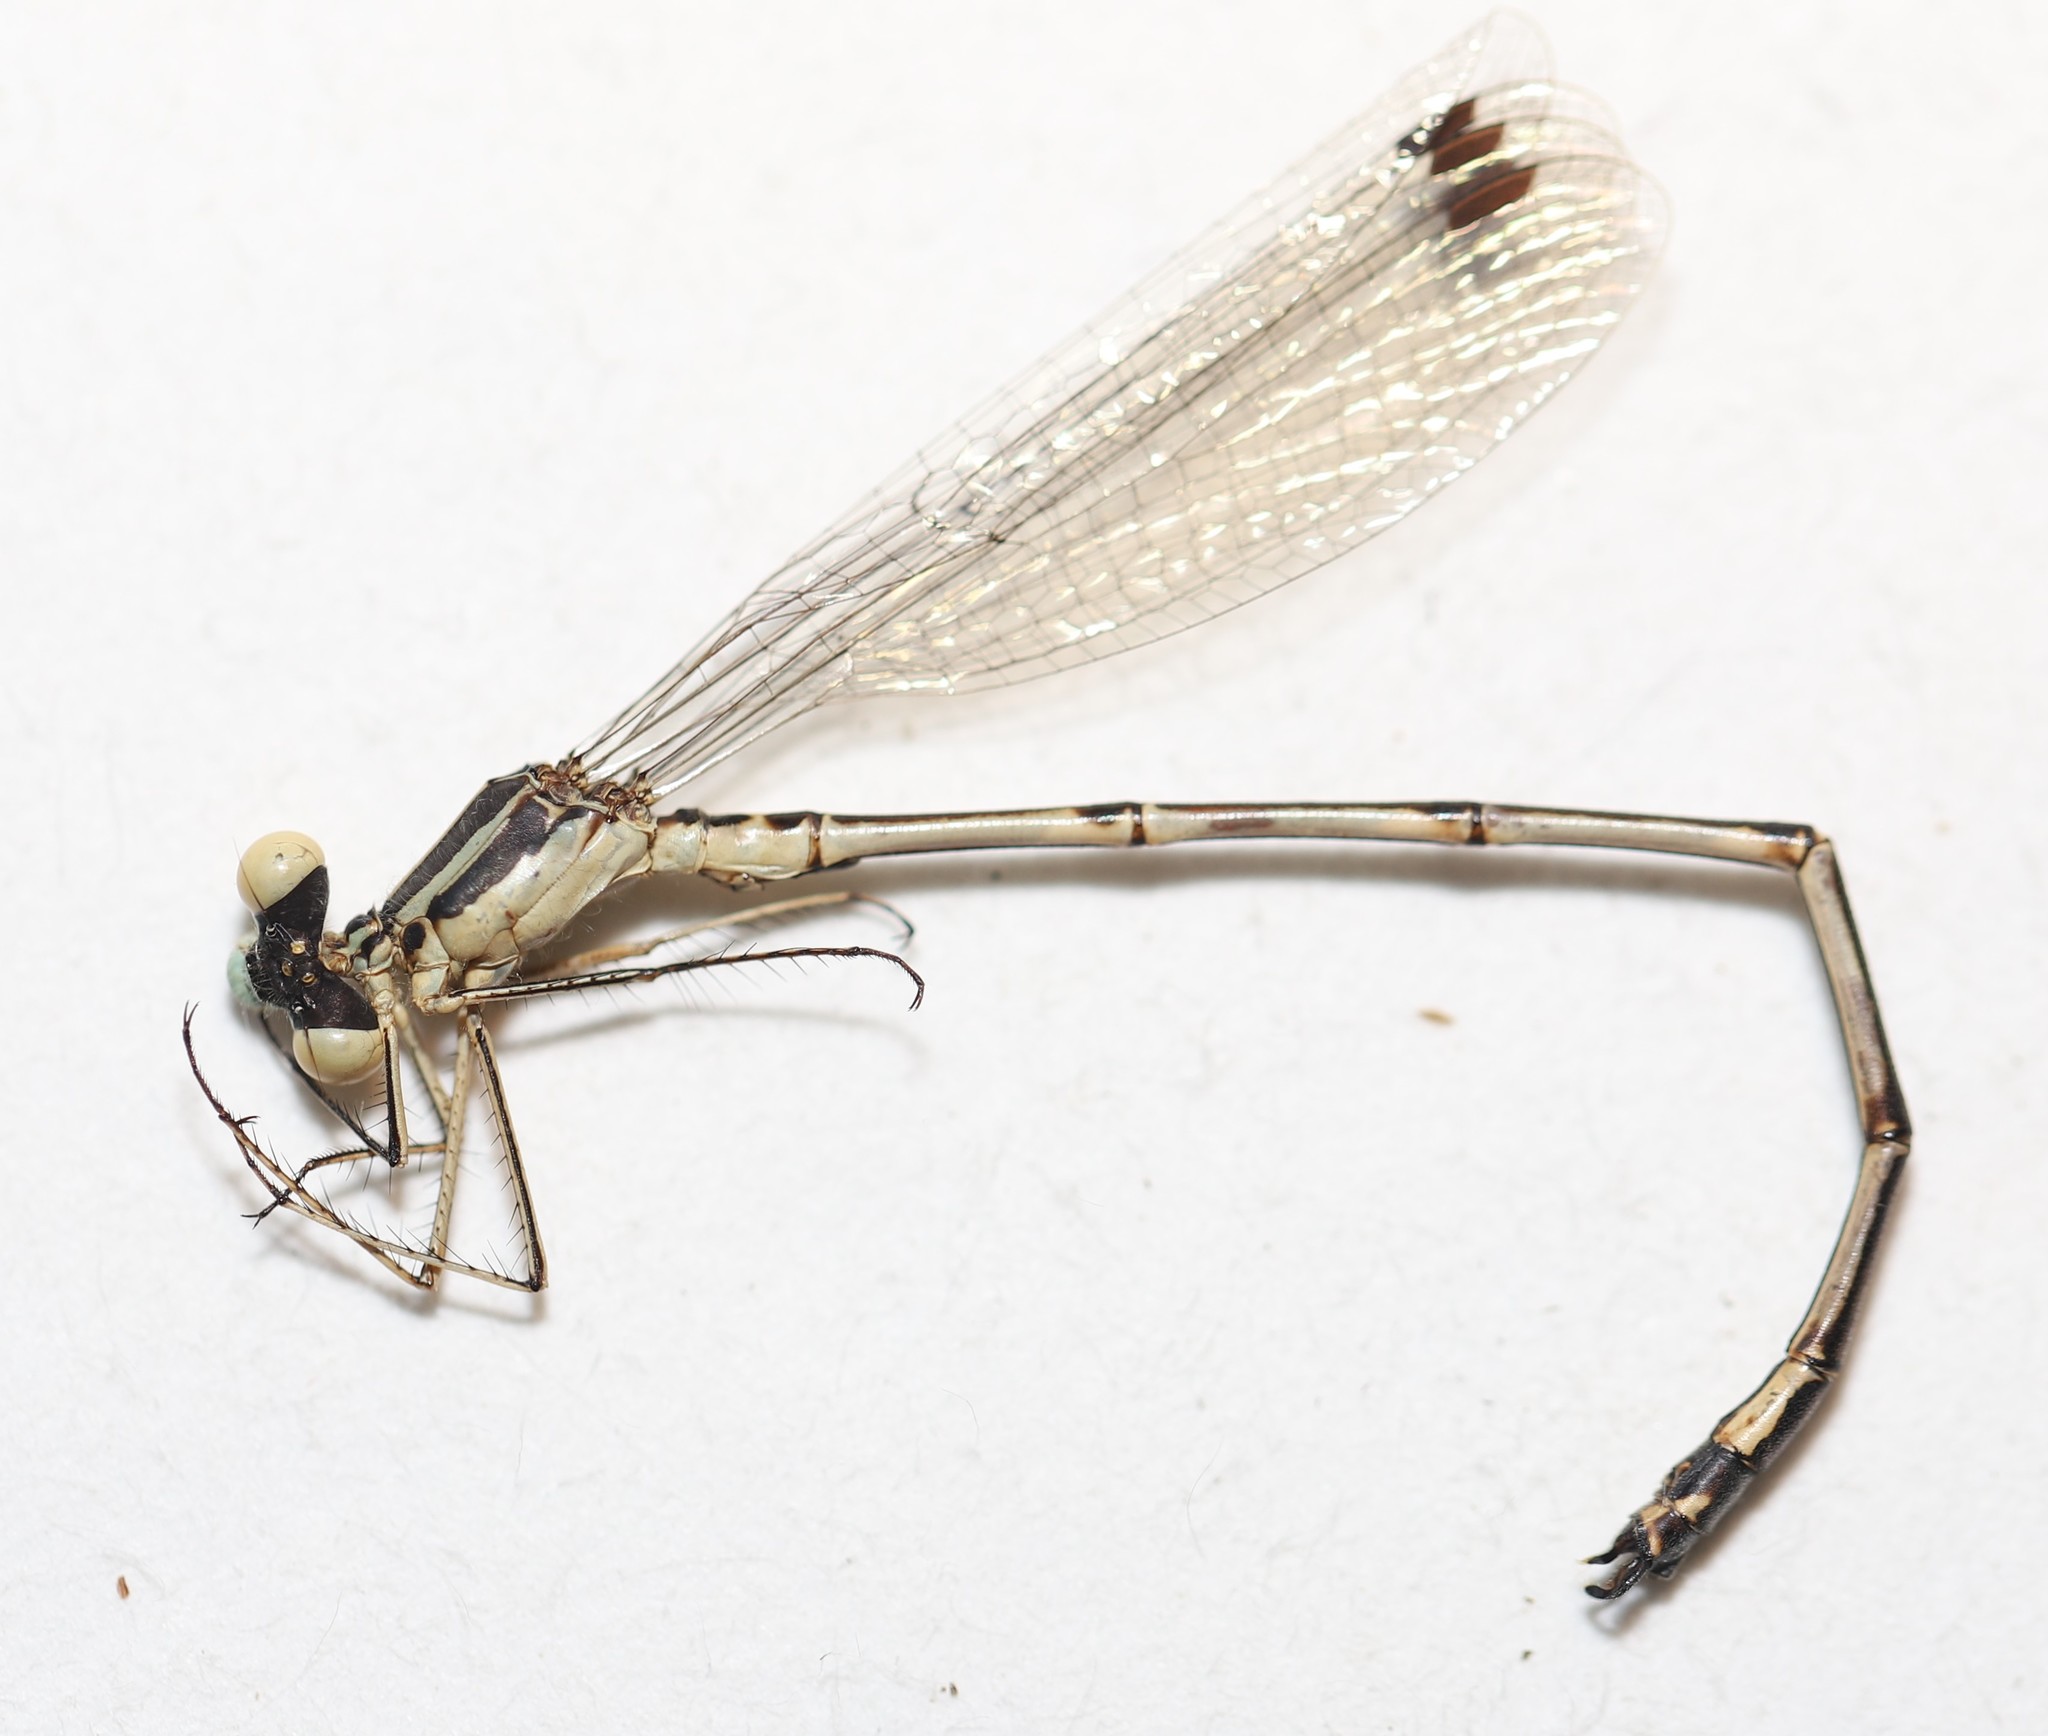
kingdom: Animalia
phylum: Arthropoda
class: Insecta
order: Odonata
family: Lestidae
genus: Lestes
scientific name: Lestes rectangularis
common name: Slender spreadwing
